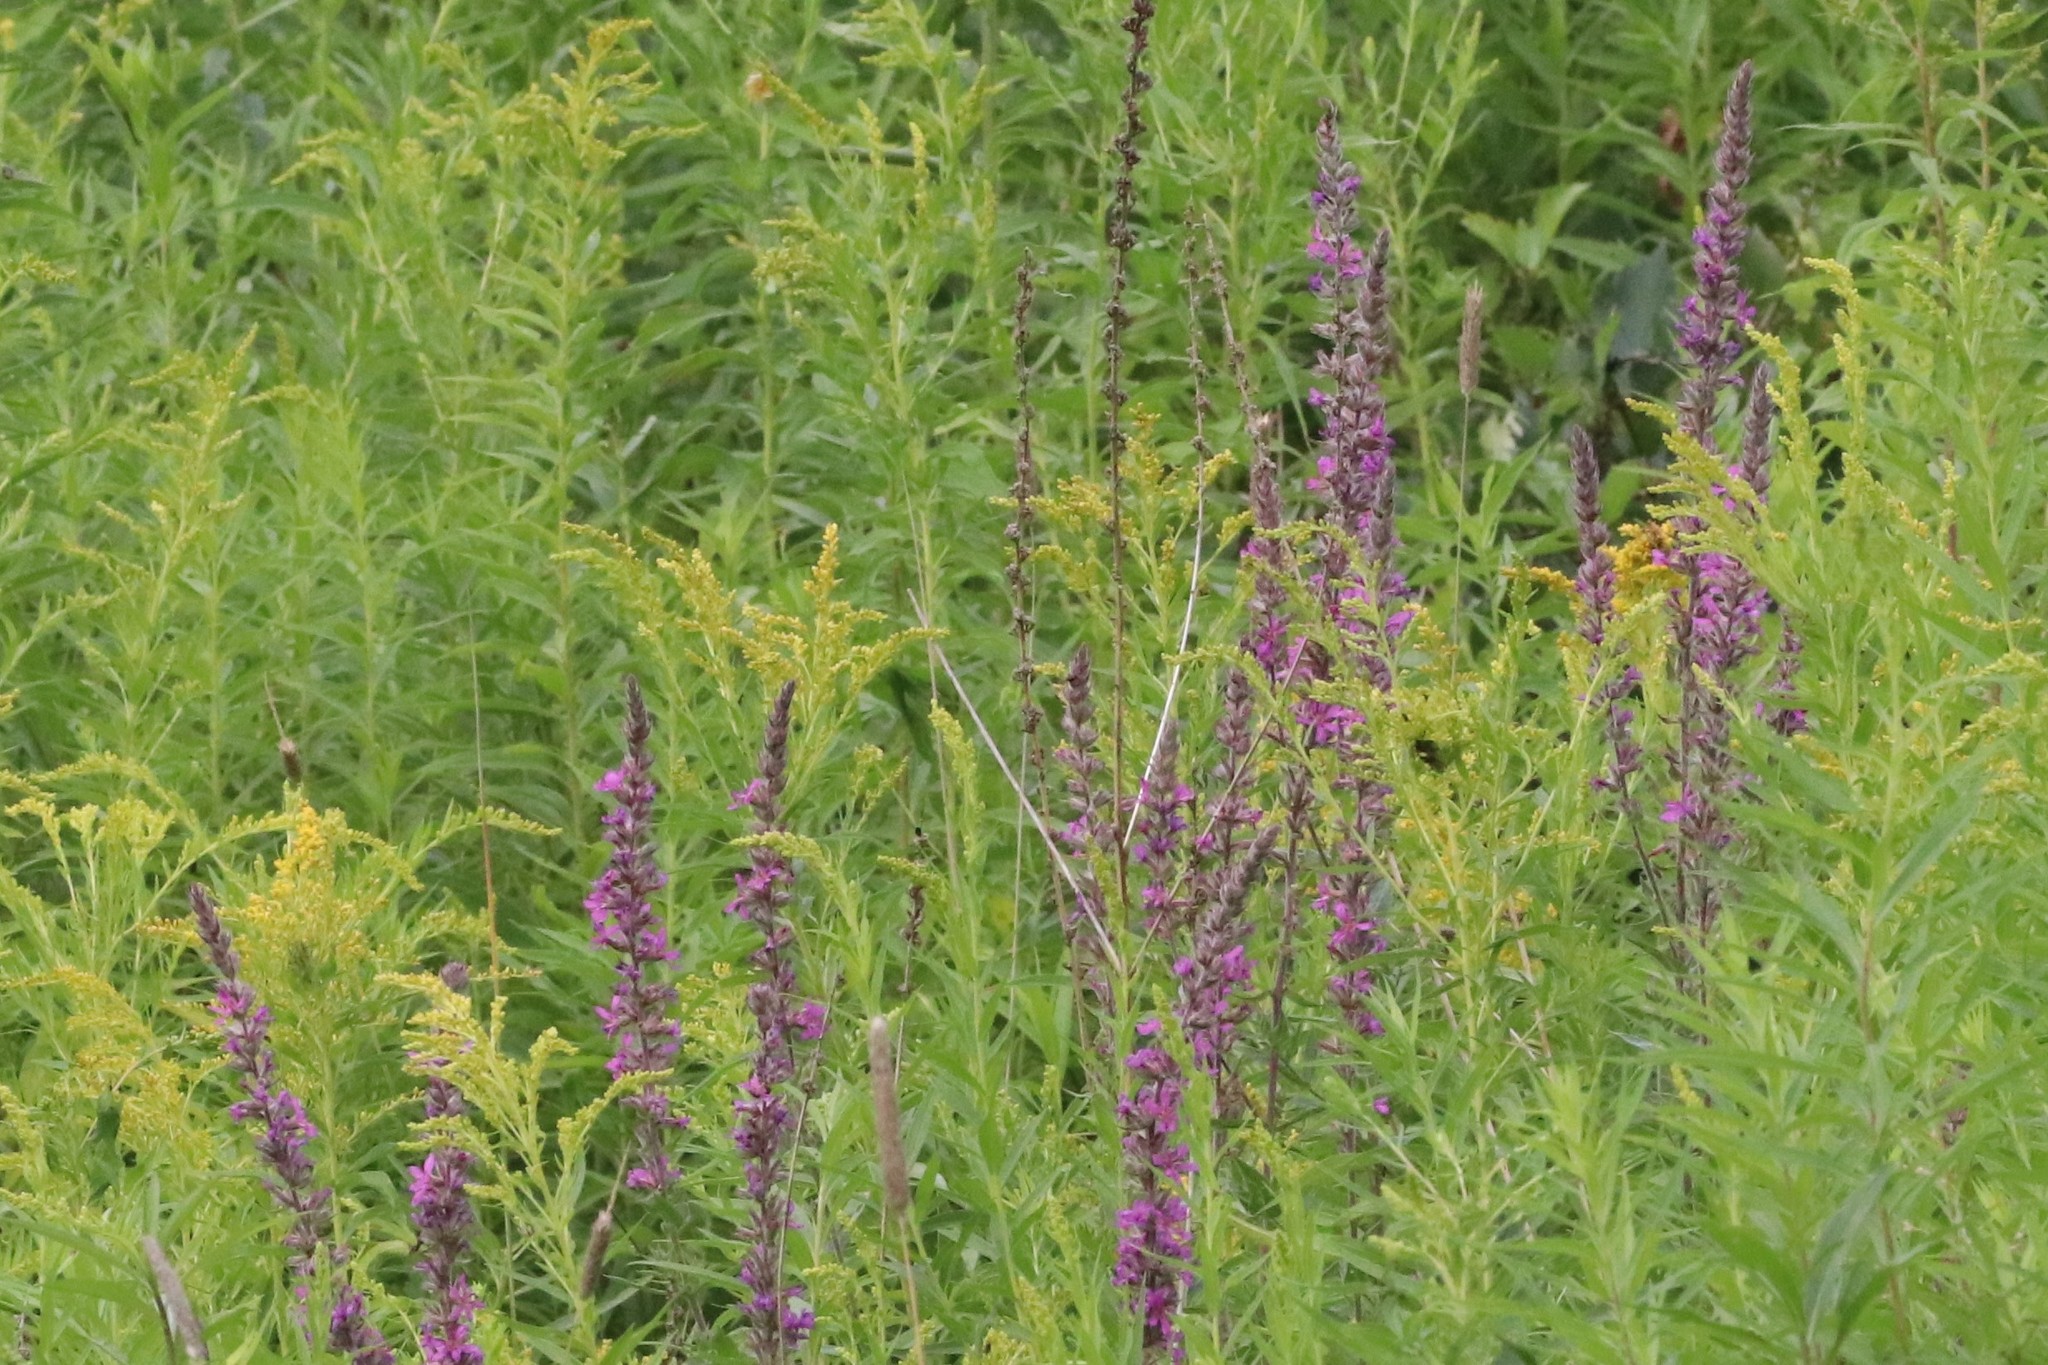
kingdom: Plantae
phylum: Tracheophyta
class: Magnoliopsida
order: Myrtales
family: Lythraceae
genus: Lythrum
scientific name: Lythrum salicaria
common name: Purple loosestrife
